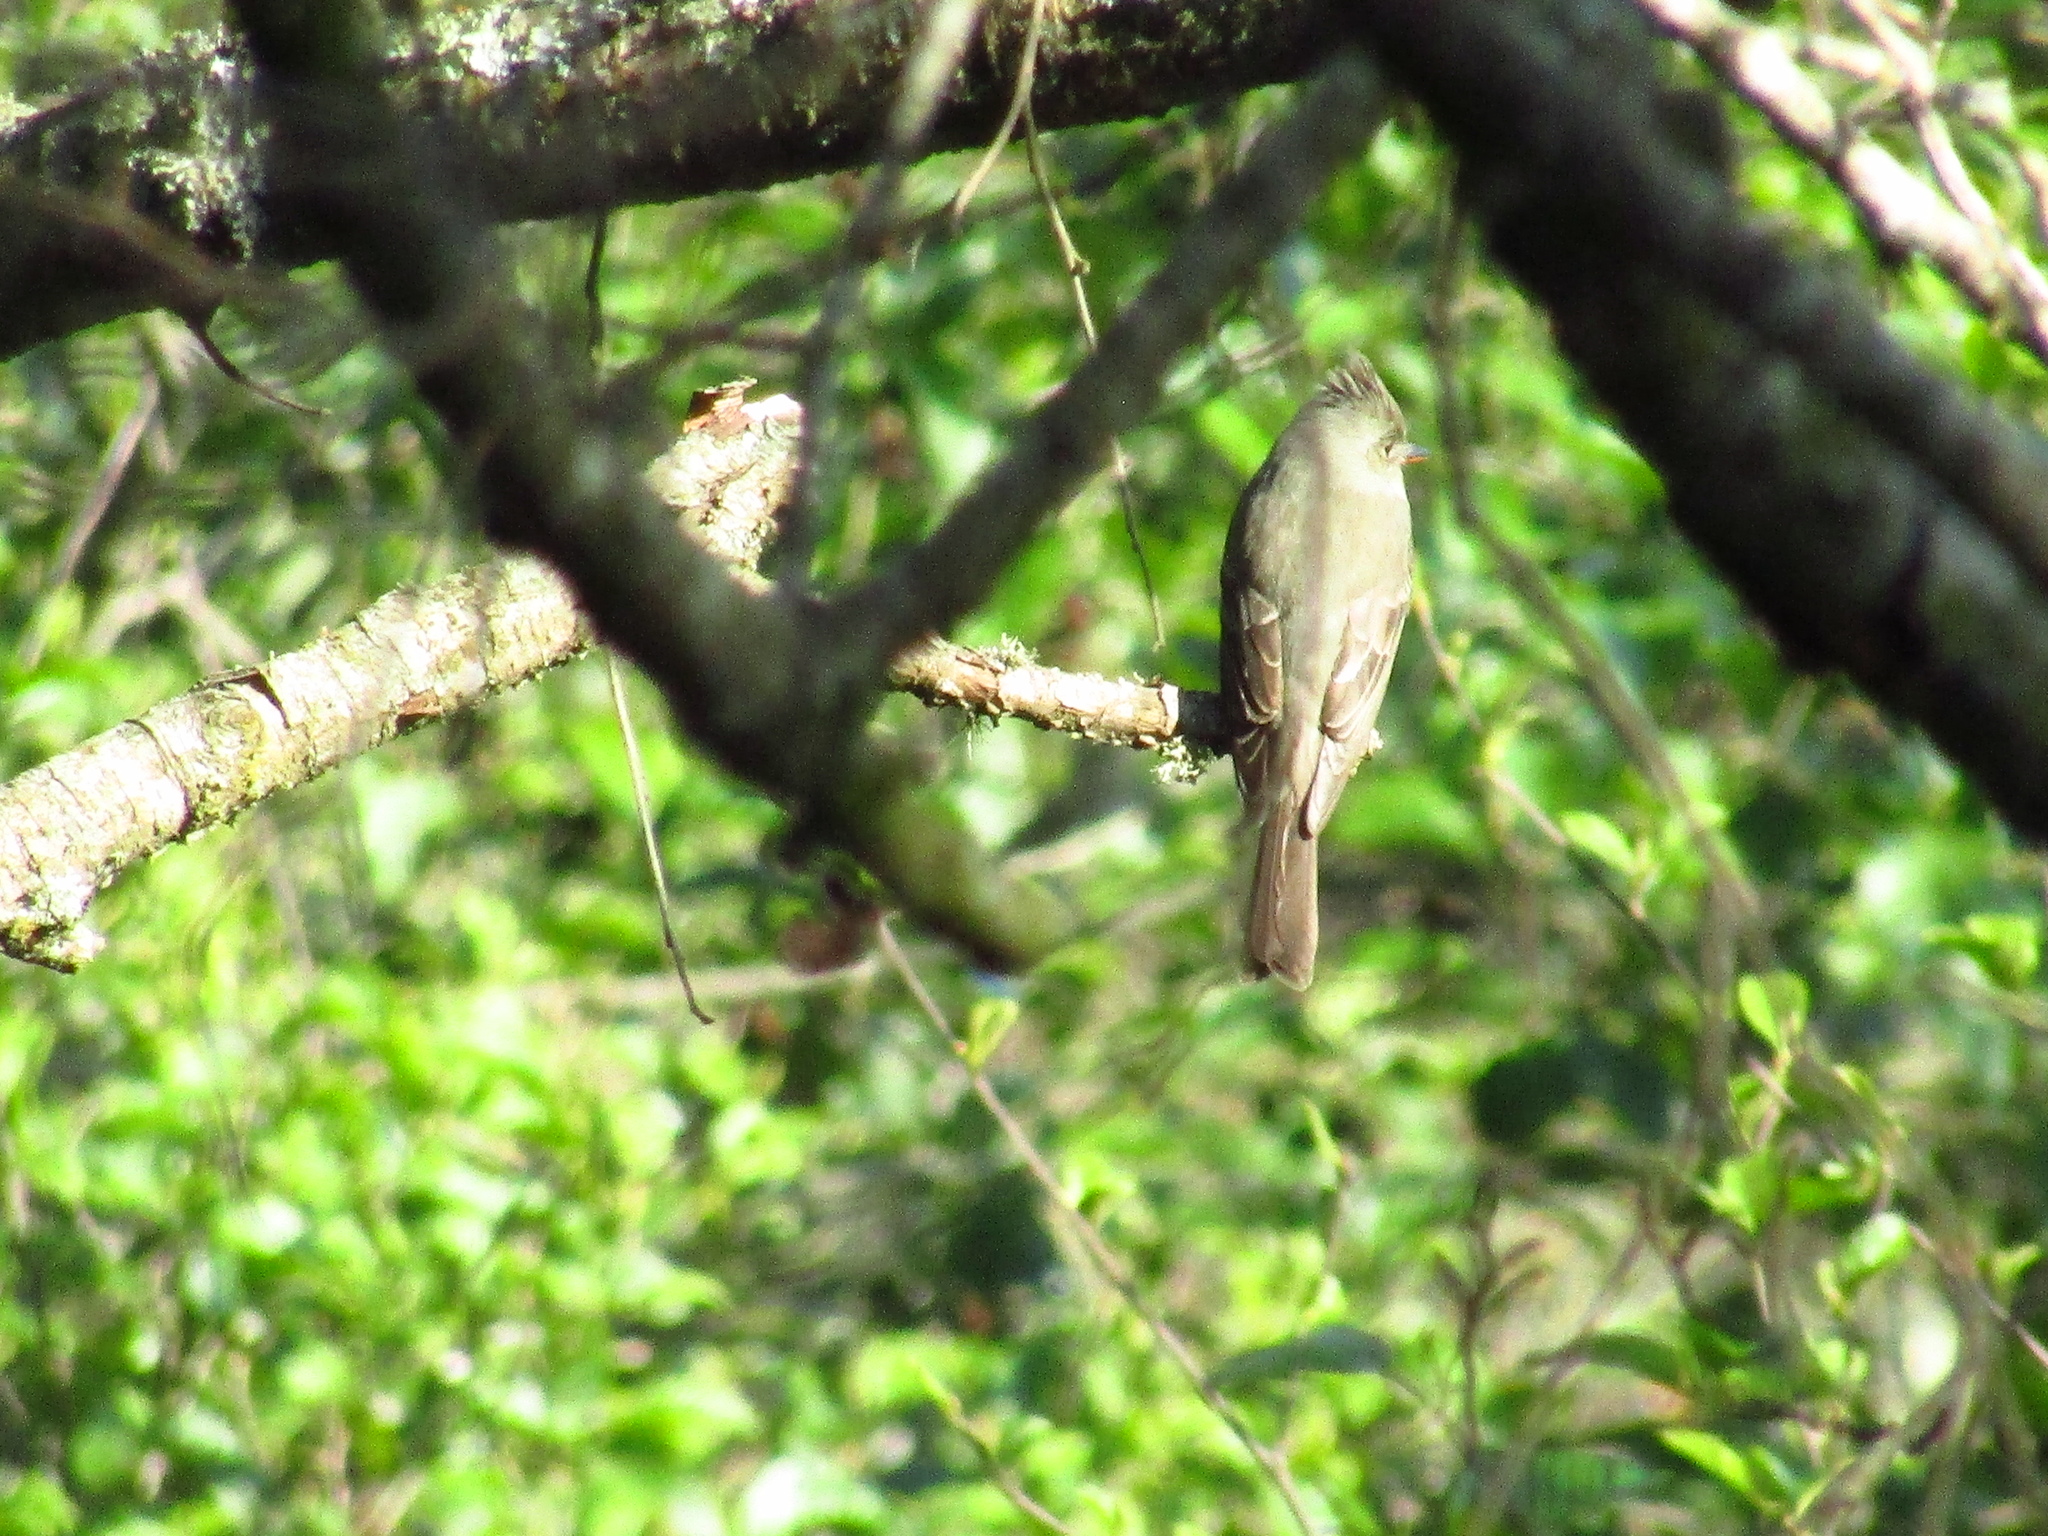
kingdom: Animalia
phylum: Chordata
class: Aves
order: Passeriformes
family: Tyrannidae
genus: Contopus
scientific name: Contopus pertinax
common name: Greater pewee
